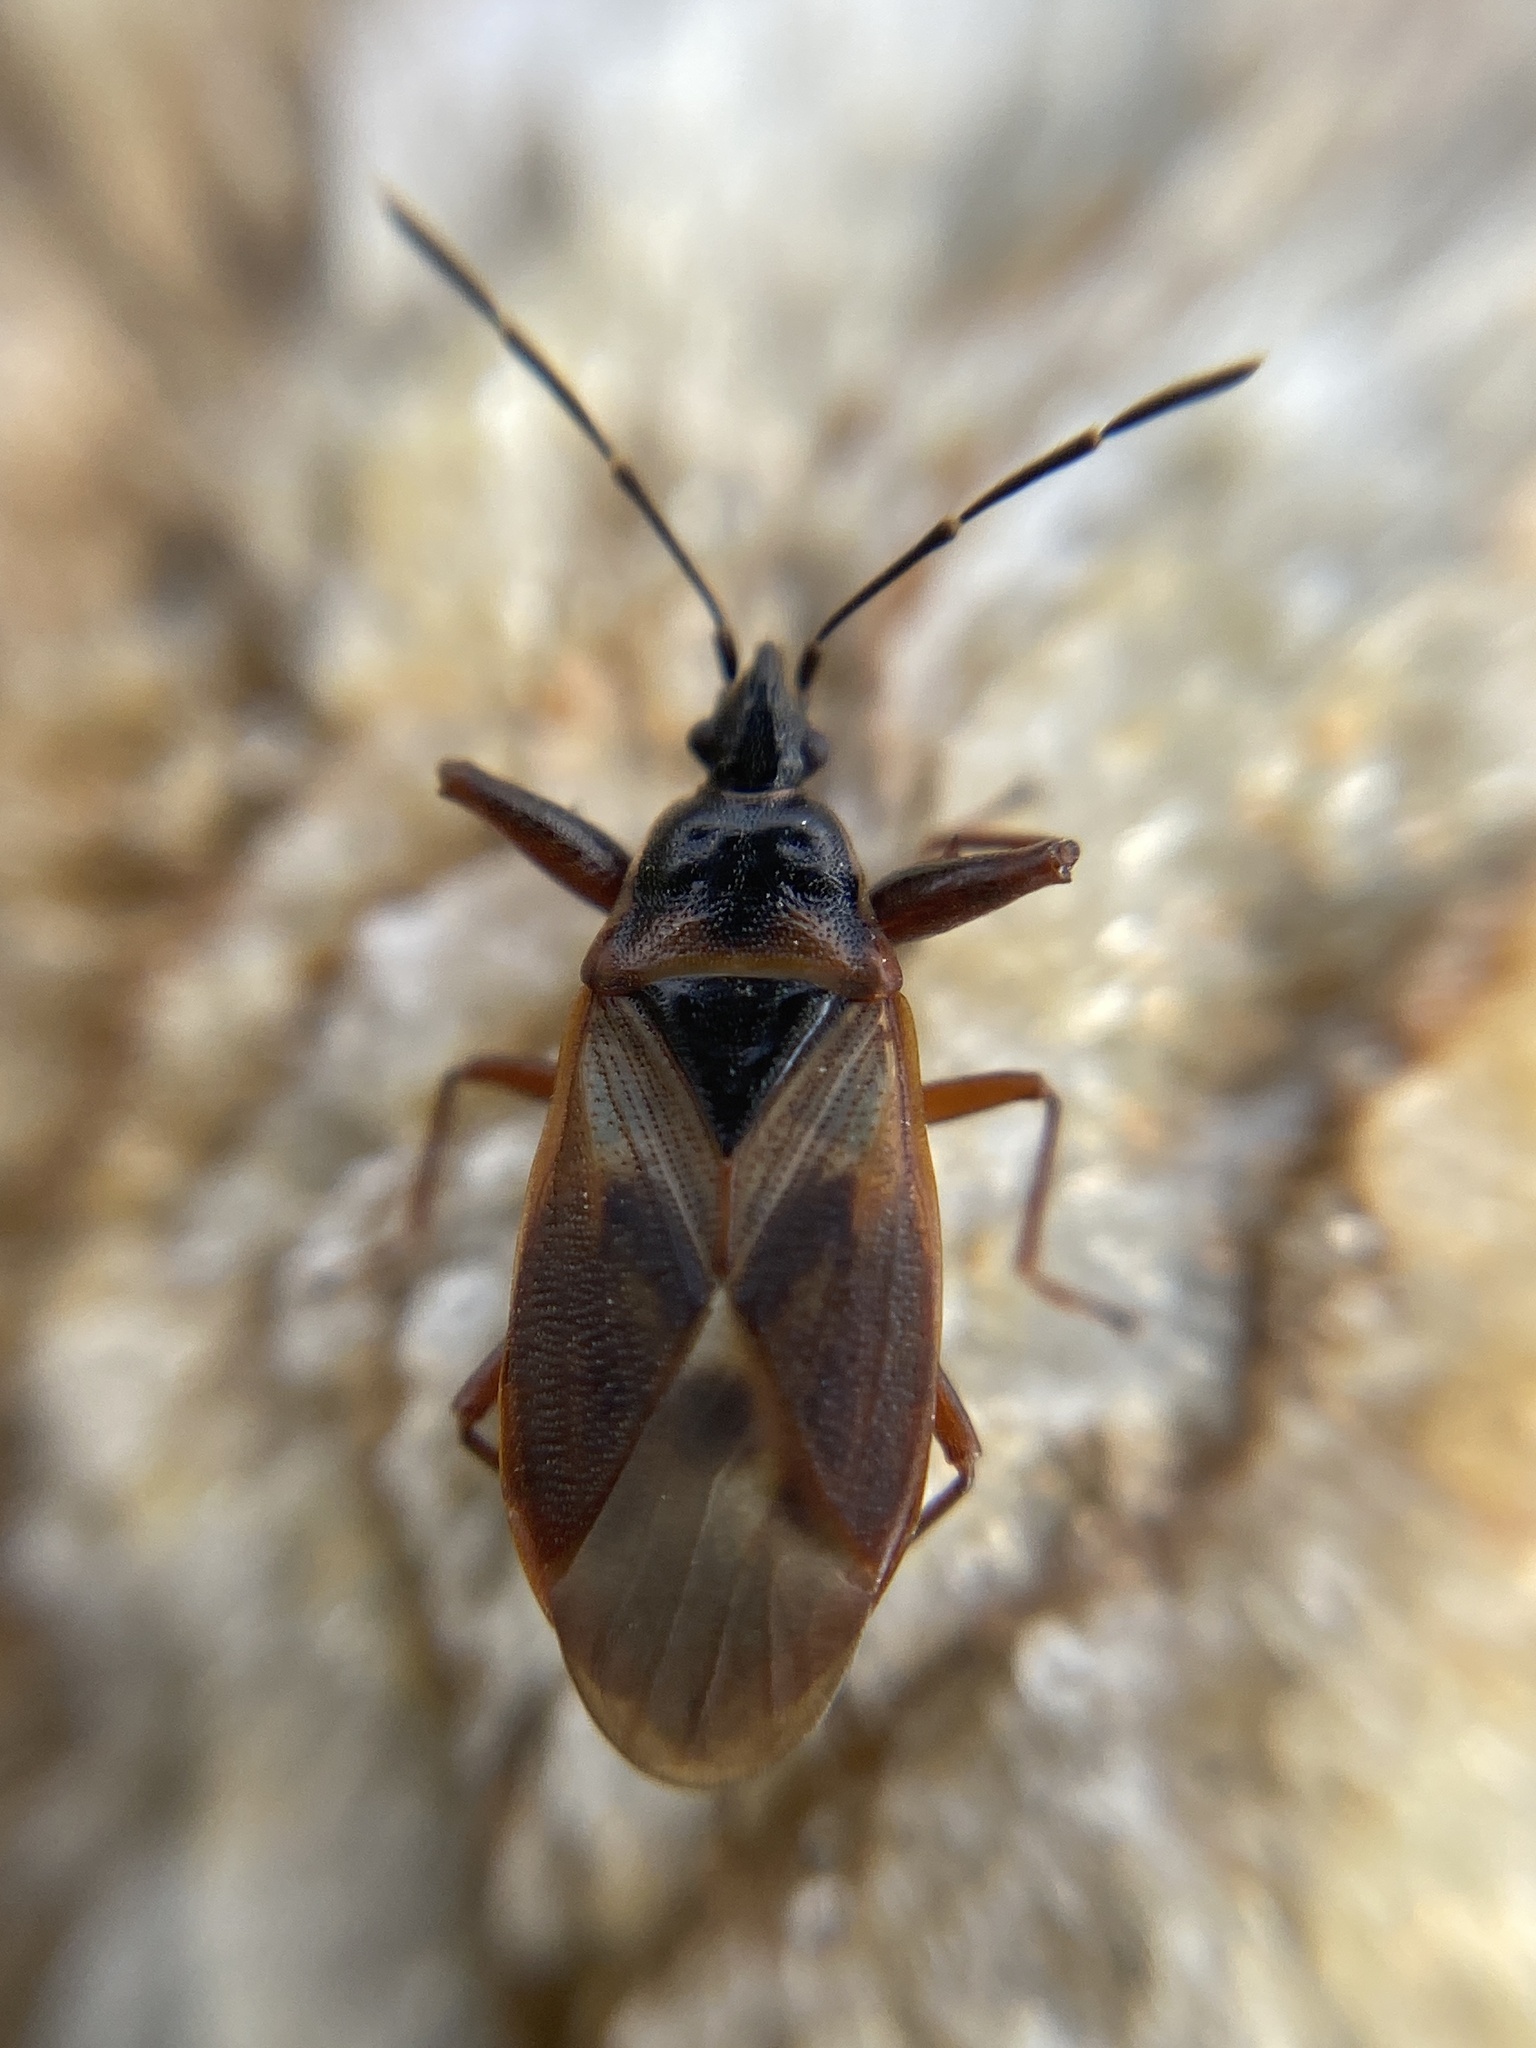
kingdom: Animalia
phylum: Arthropoda
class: Insecta
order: Hemiptera
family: Rhyparochromidae
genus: Gastrodes
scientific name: Gastrodes abietum
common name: Spruce cone bug
